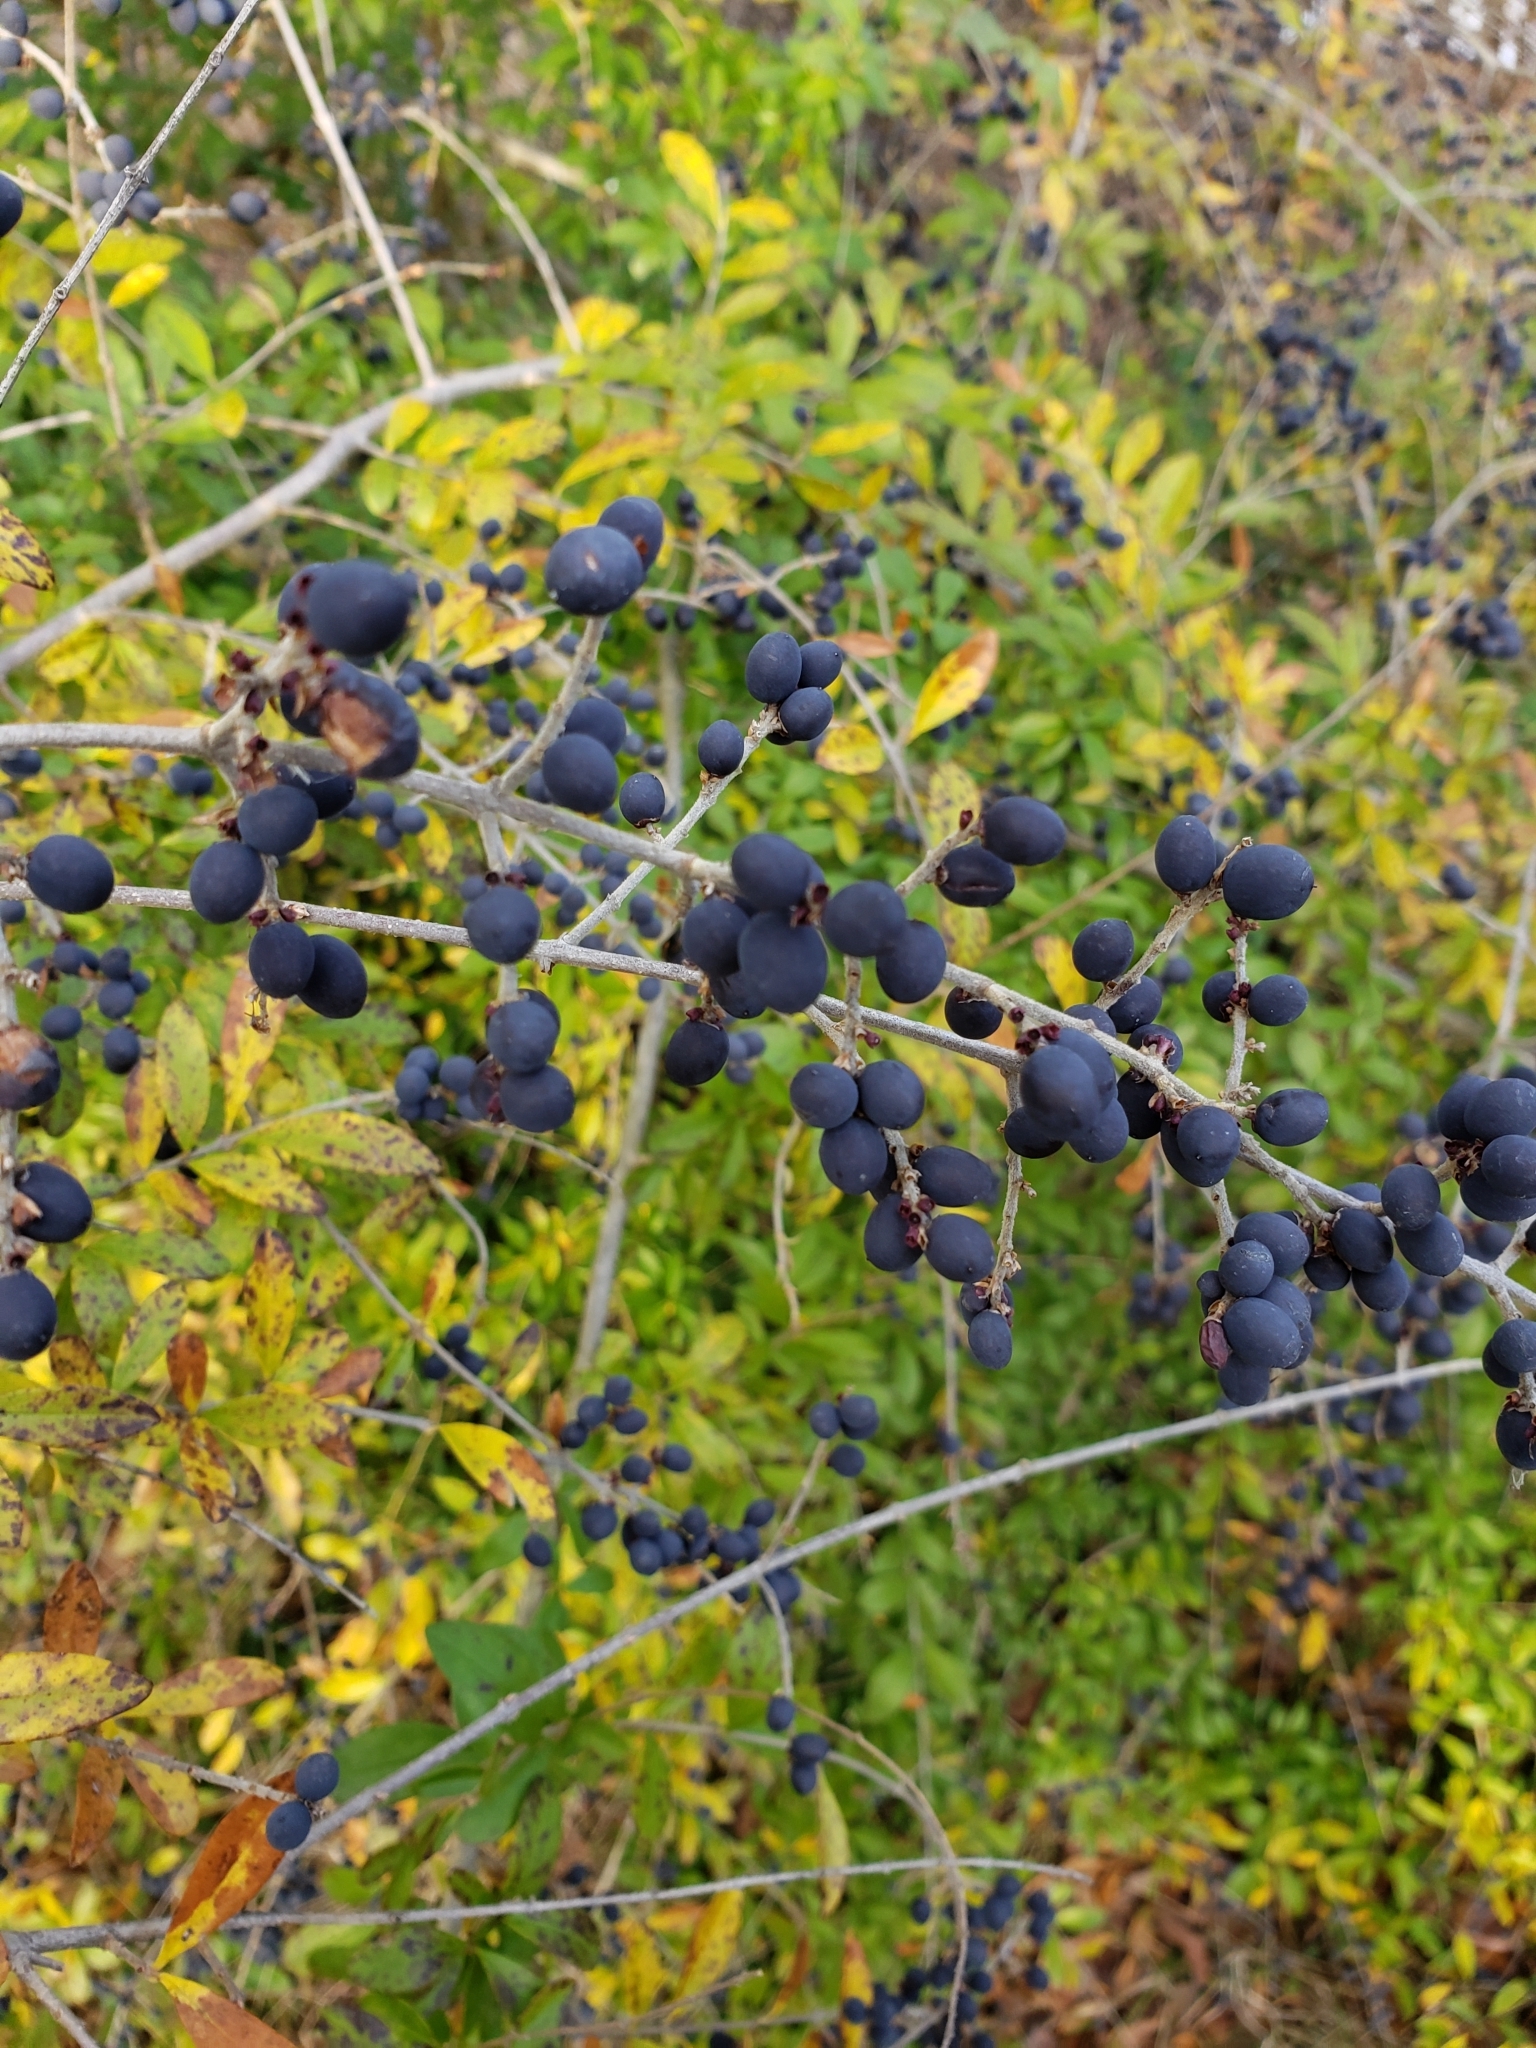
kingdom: Plantae
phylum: Tracheophyta
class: Magnoliopsida
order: Lamiales
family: Oleaceae
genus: Ligustrum
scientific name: Ligustrum quihoui
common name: Waxyleaf privet
